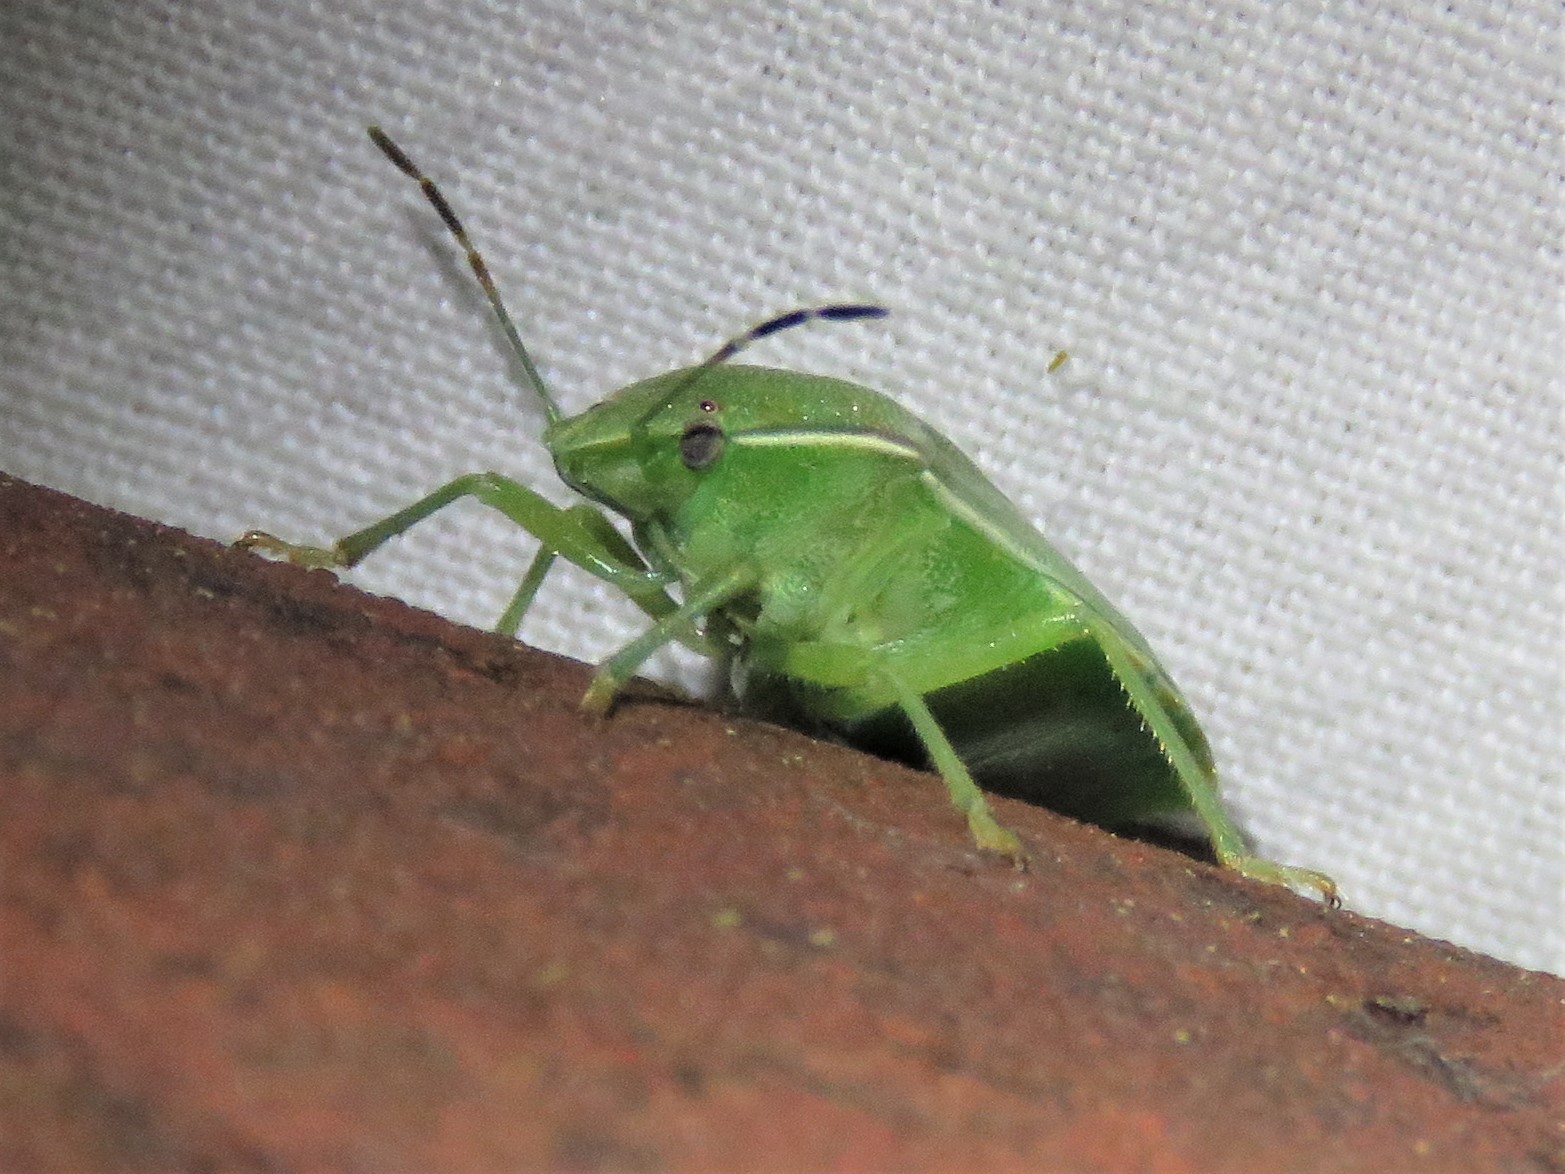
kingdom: Animalia
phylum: Arthropoda
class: Insecta
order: Hemiptera
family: Pentatomidae
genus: Chinavia
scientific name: Chinavia hilaris
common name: Green stink bug
